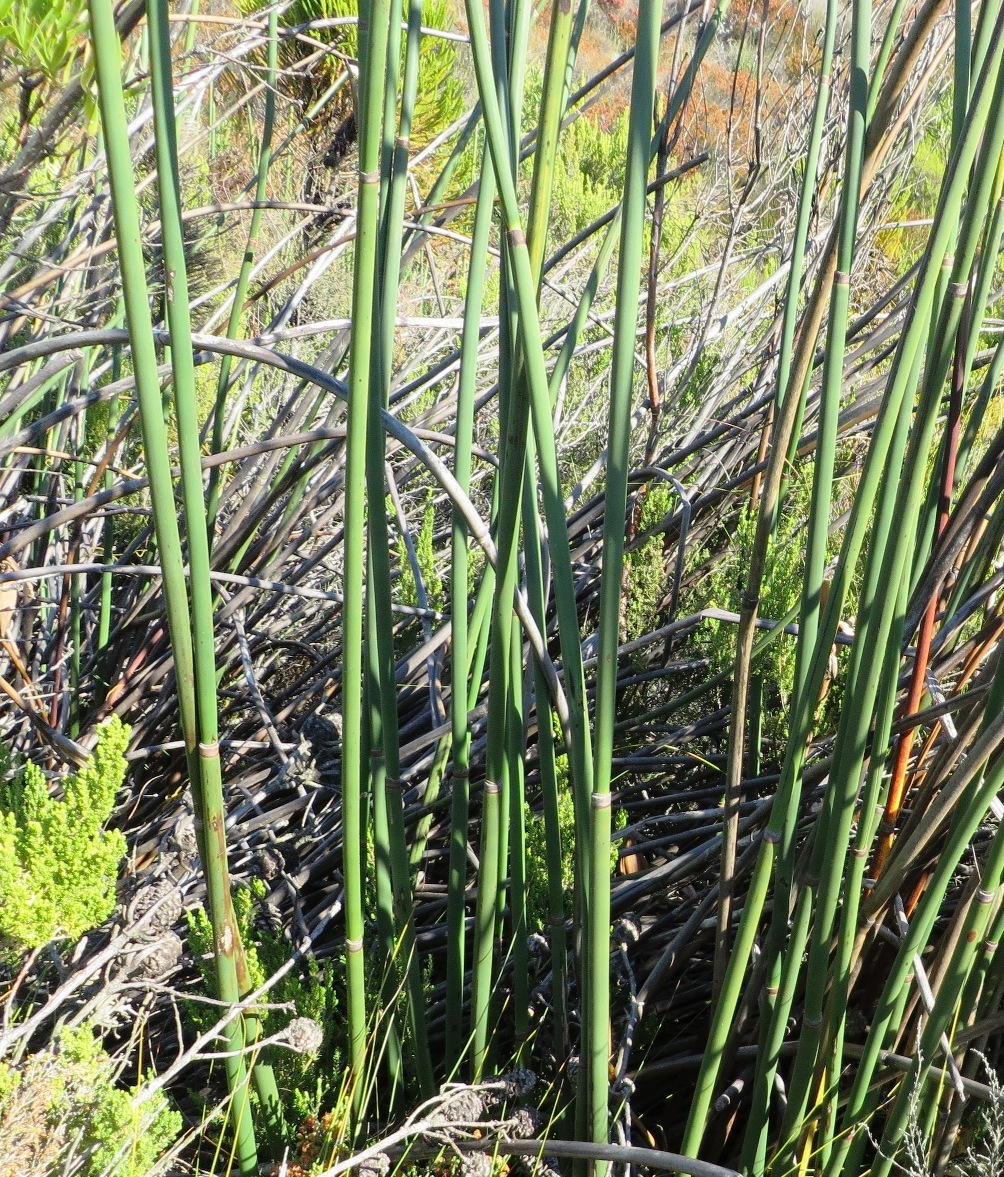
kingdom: Plantae
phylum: Tracheophyta
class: Liliopsida
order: Poales
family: Restionaceae
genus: Elegia
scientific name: Elegia mucronata
